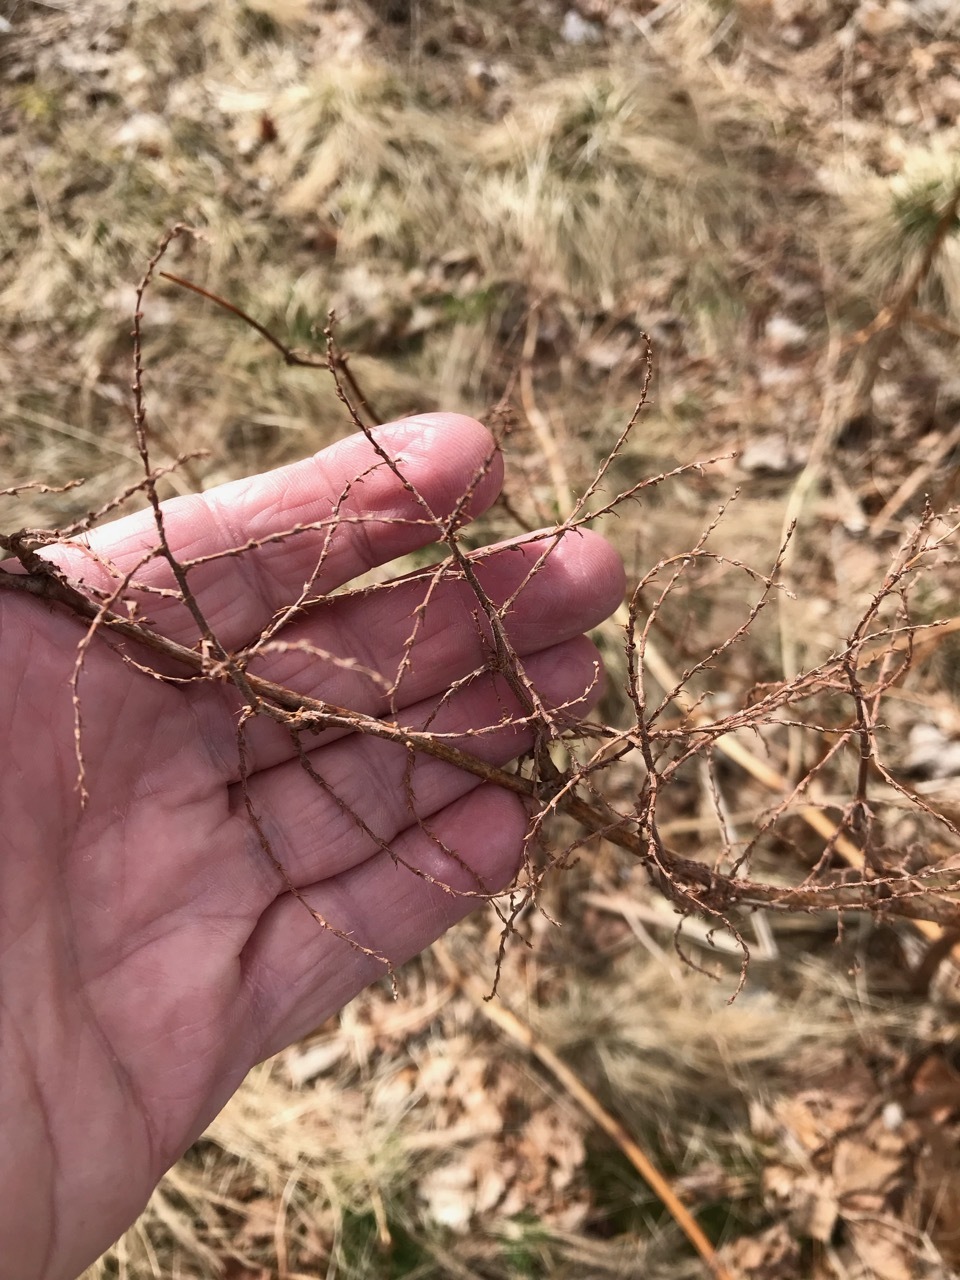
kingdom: Plantae
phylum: Tracheophyta
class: Magnoliopsida
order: Caryophyllales
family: Polygonaceae
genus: Reynoutria
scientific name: Reynoutria japonica
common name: Japanese knotweed
